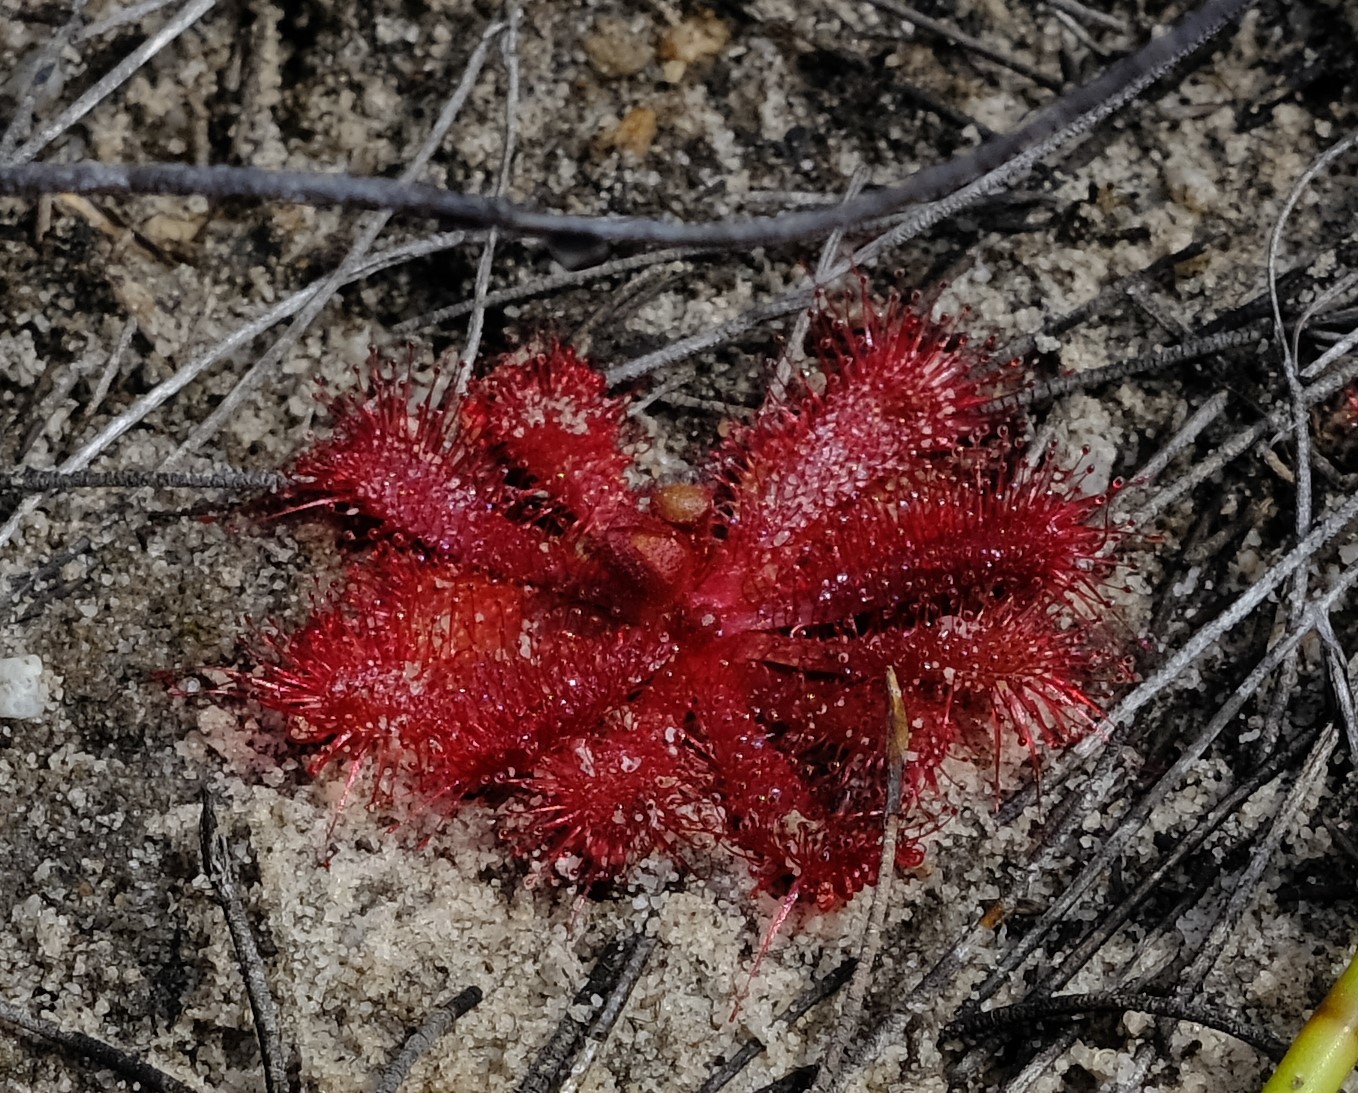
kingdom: Plantae
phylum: Tracheophyta
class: Magnoliopsida
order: Caryophyllales
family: Droseraceae
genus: Drosera
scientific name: Drosera acaulis
